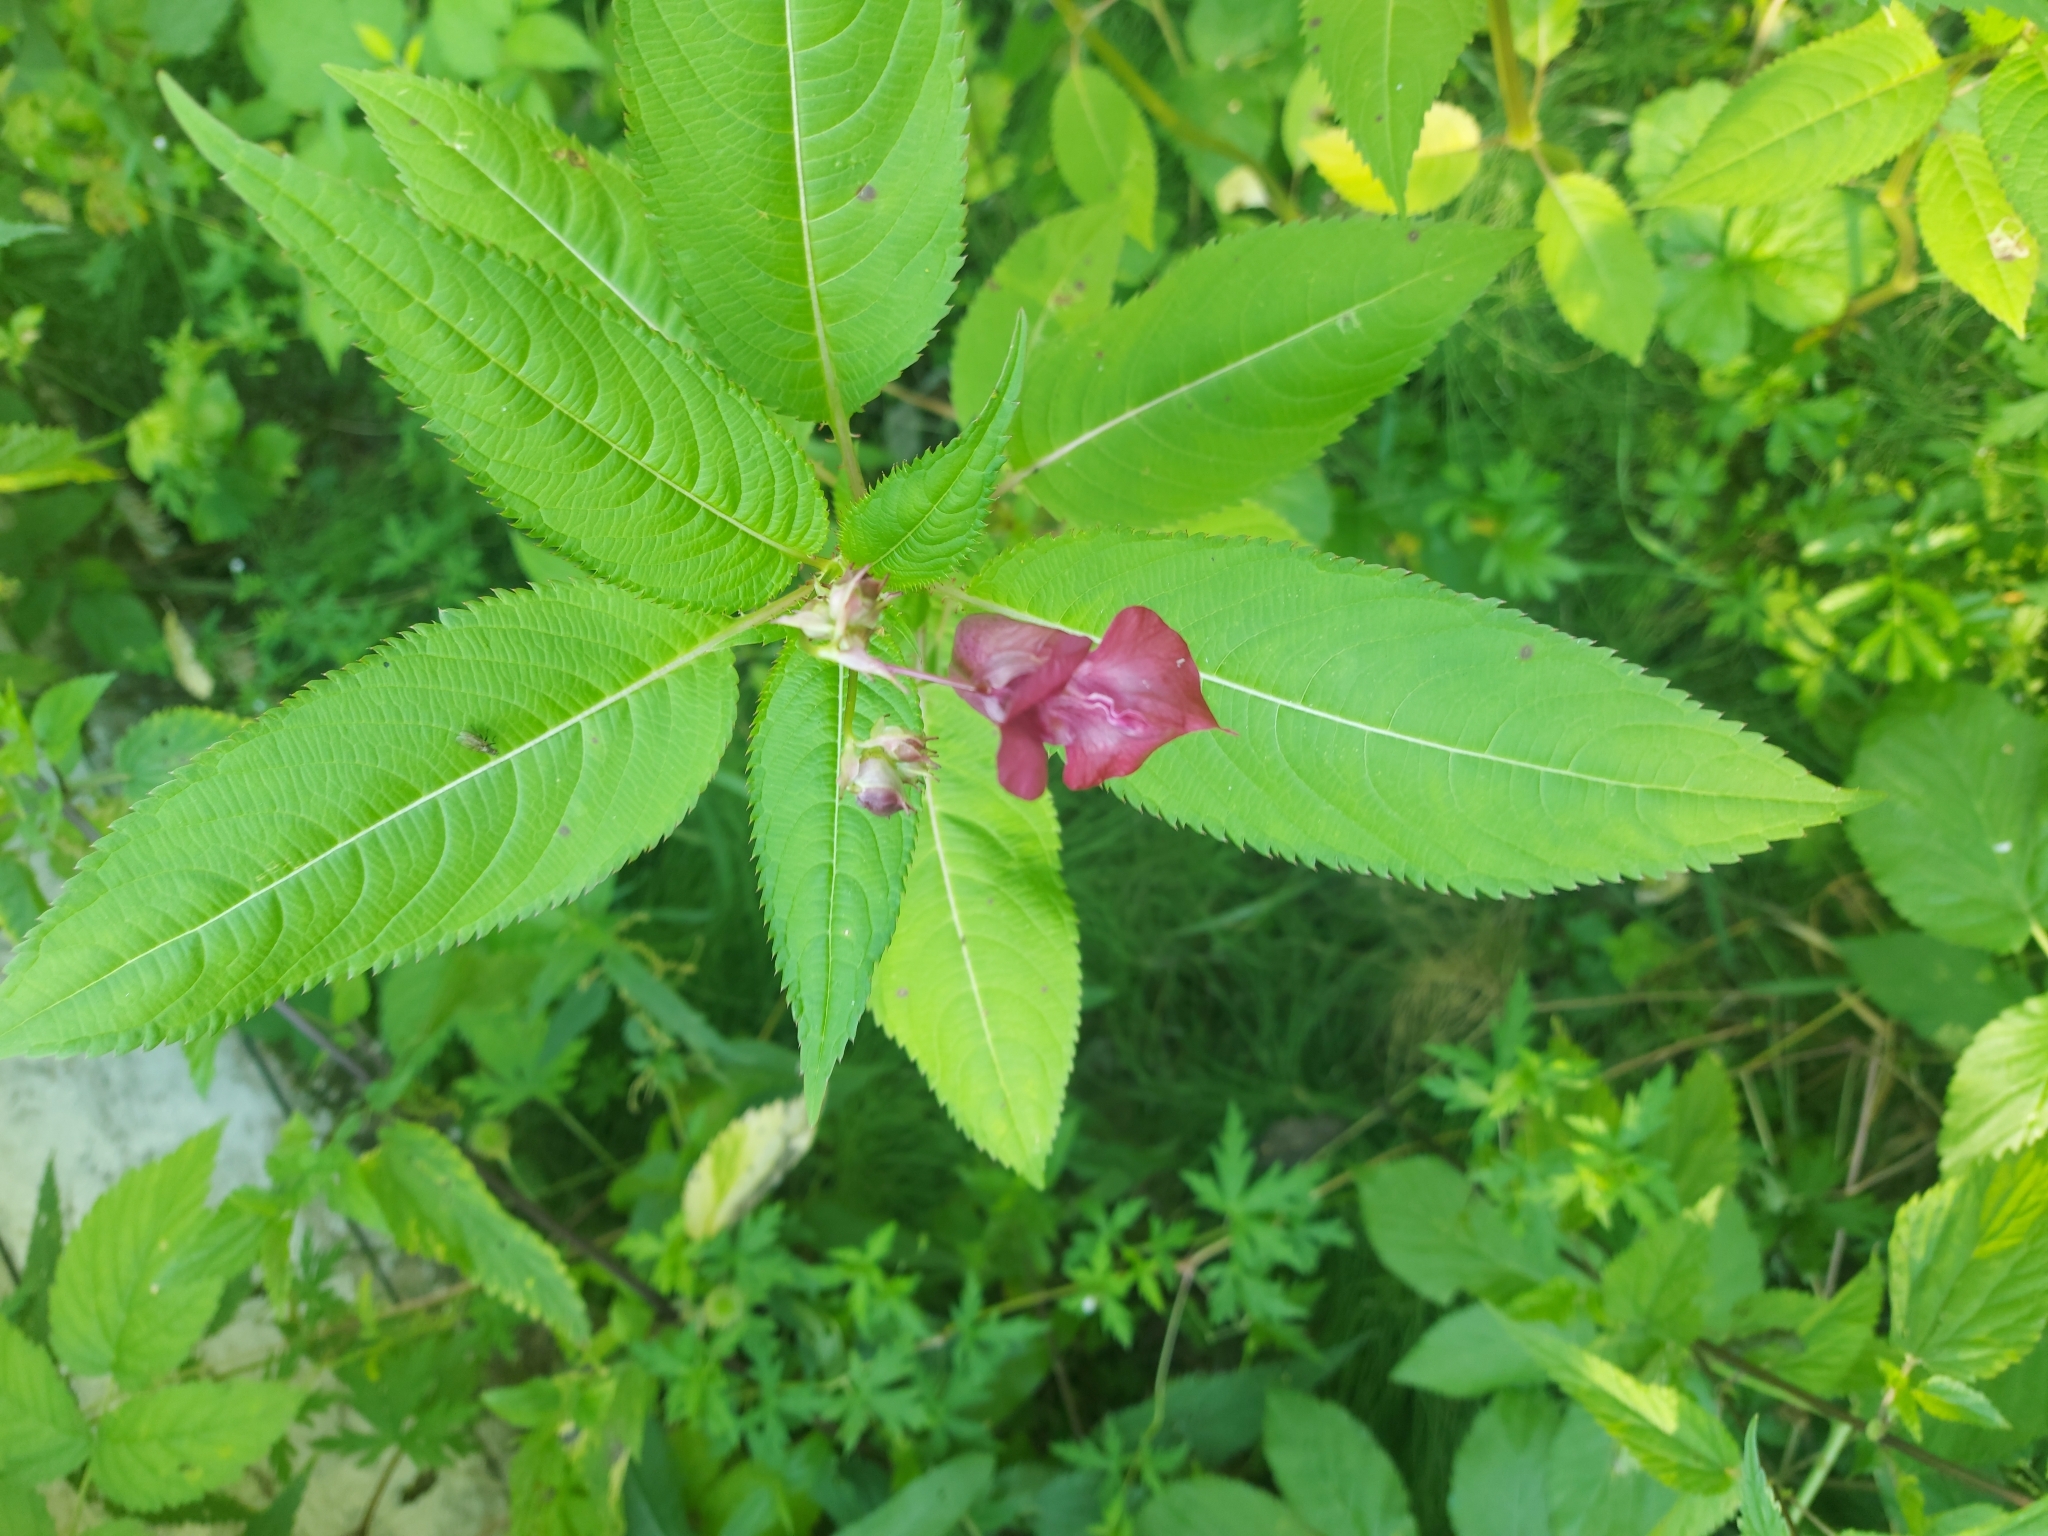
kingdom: Plantae
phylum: Tracheophyta
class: Magnoliopsida
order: Ericales
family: Balsaminaceae
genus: Impatiens
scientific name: Impatiens glandulifera
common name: Himalayan balsam
